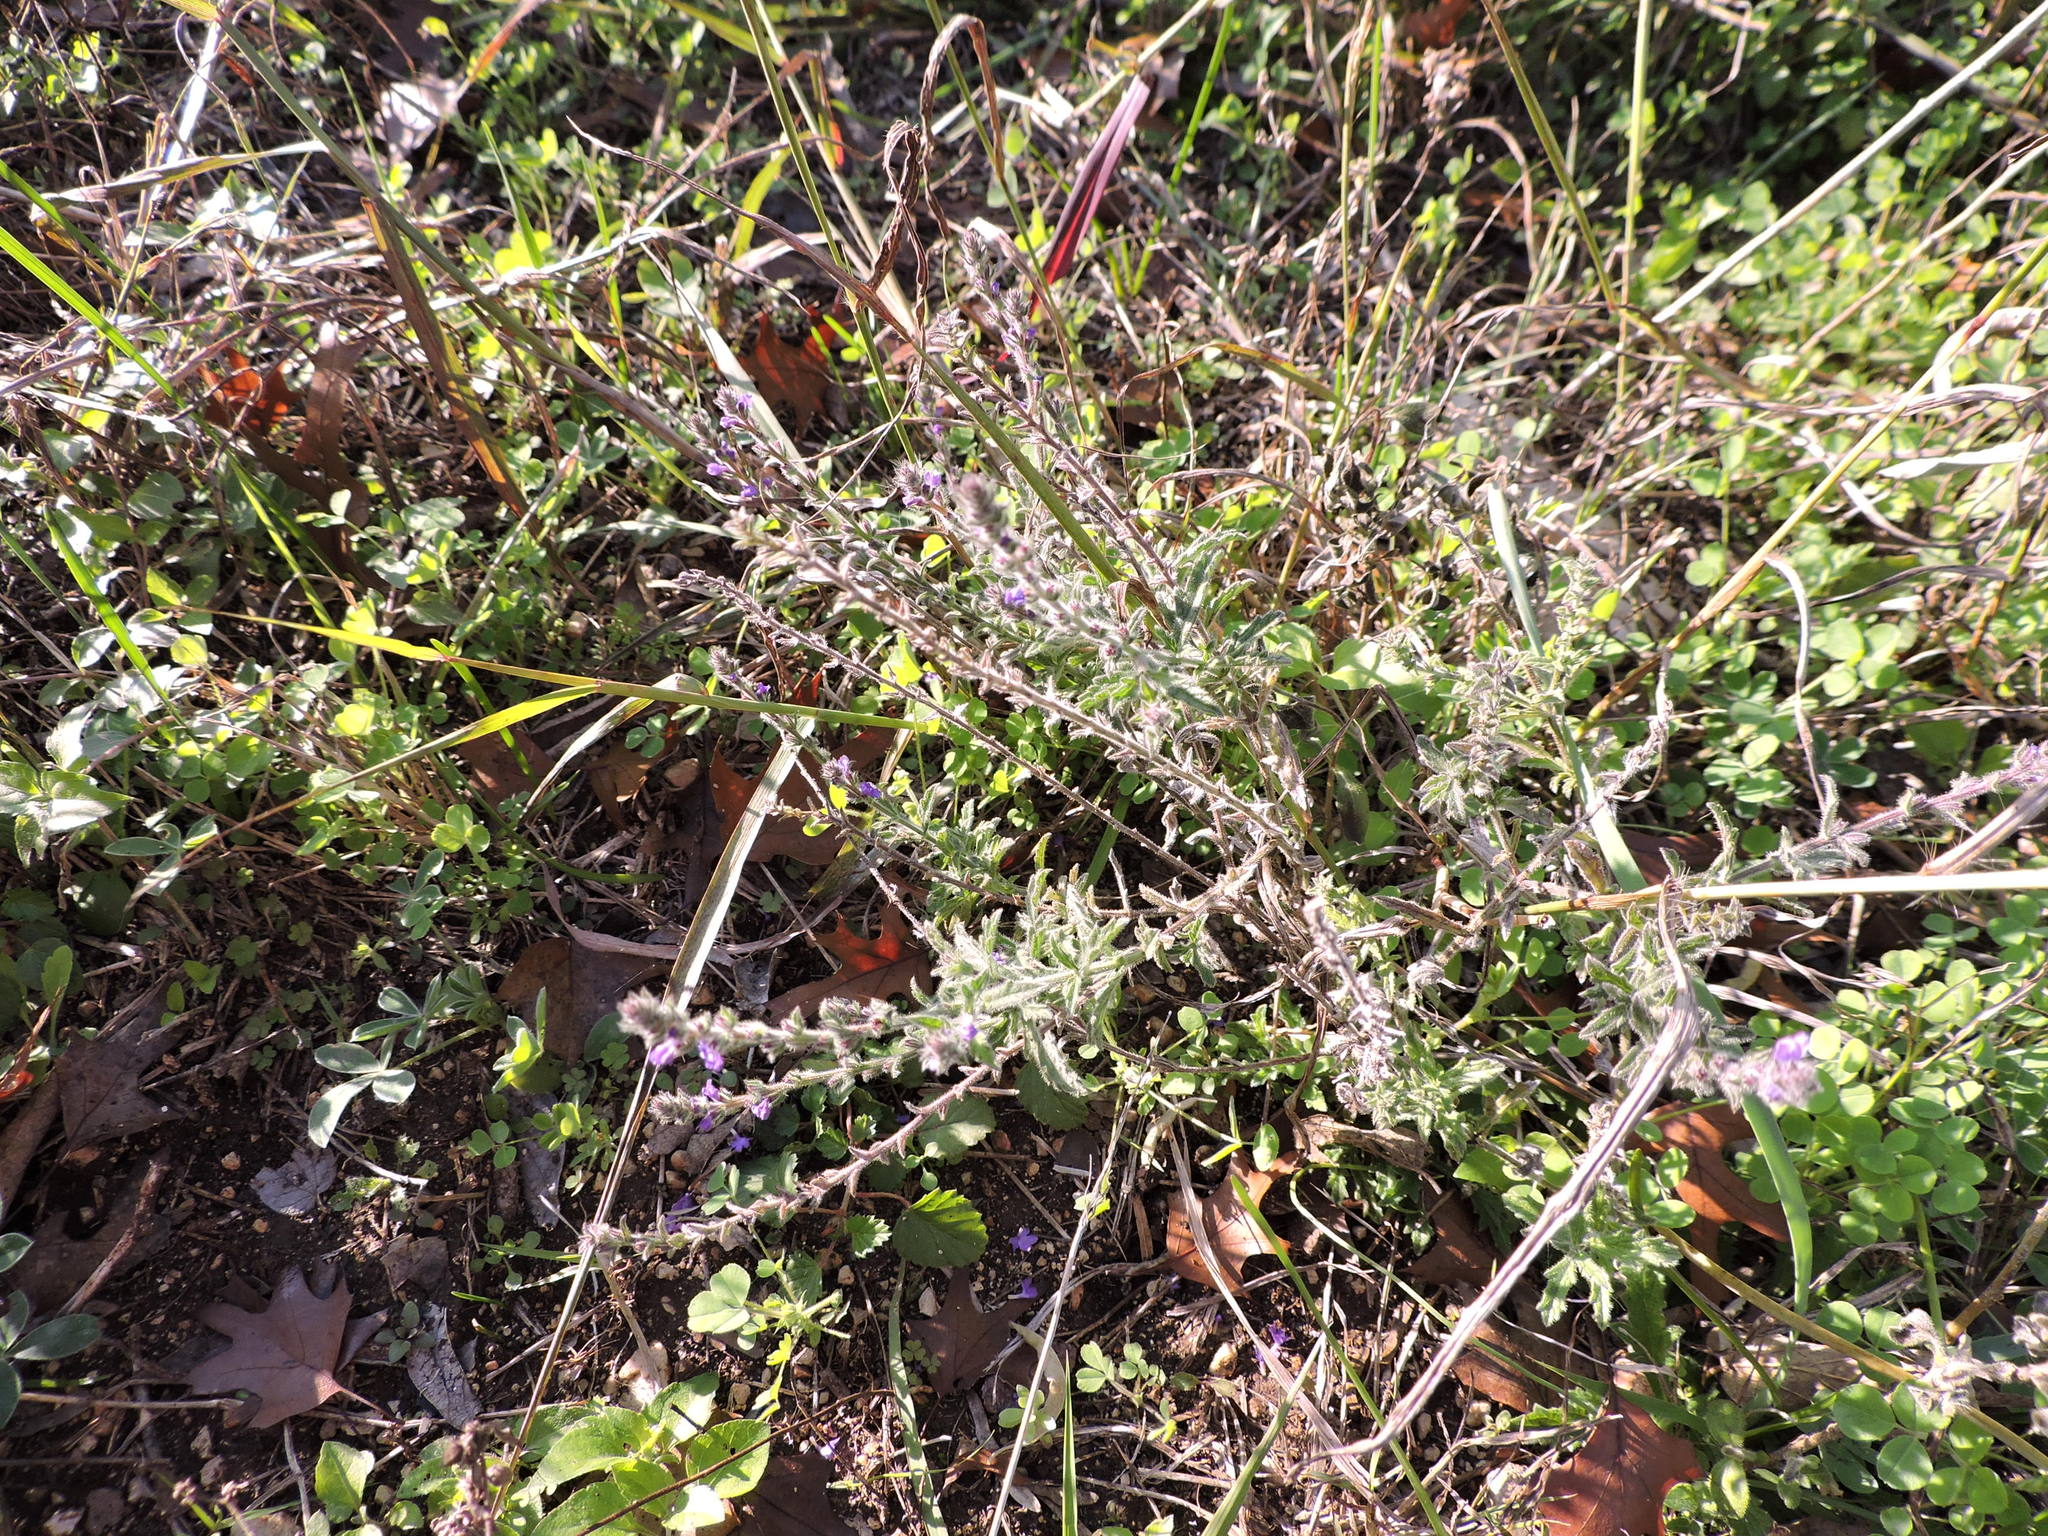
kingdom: Plantae
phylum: Tracheophyta
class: Magnoliopsida
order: Lamiales
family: Verbenaceae
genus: Verbena
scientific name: Verbena canescens
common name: Gray vervain
